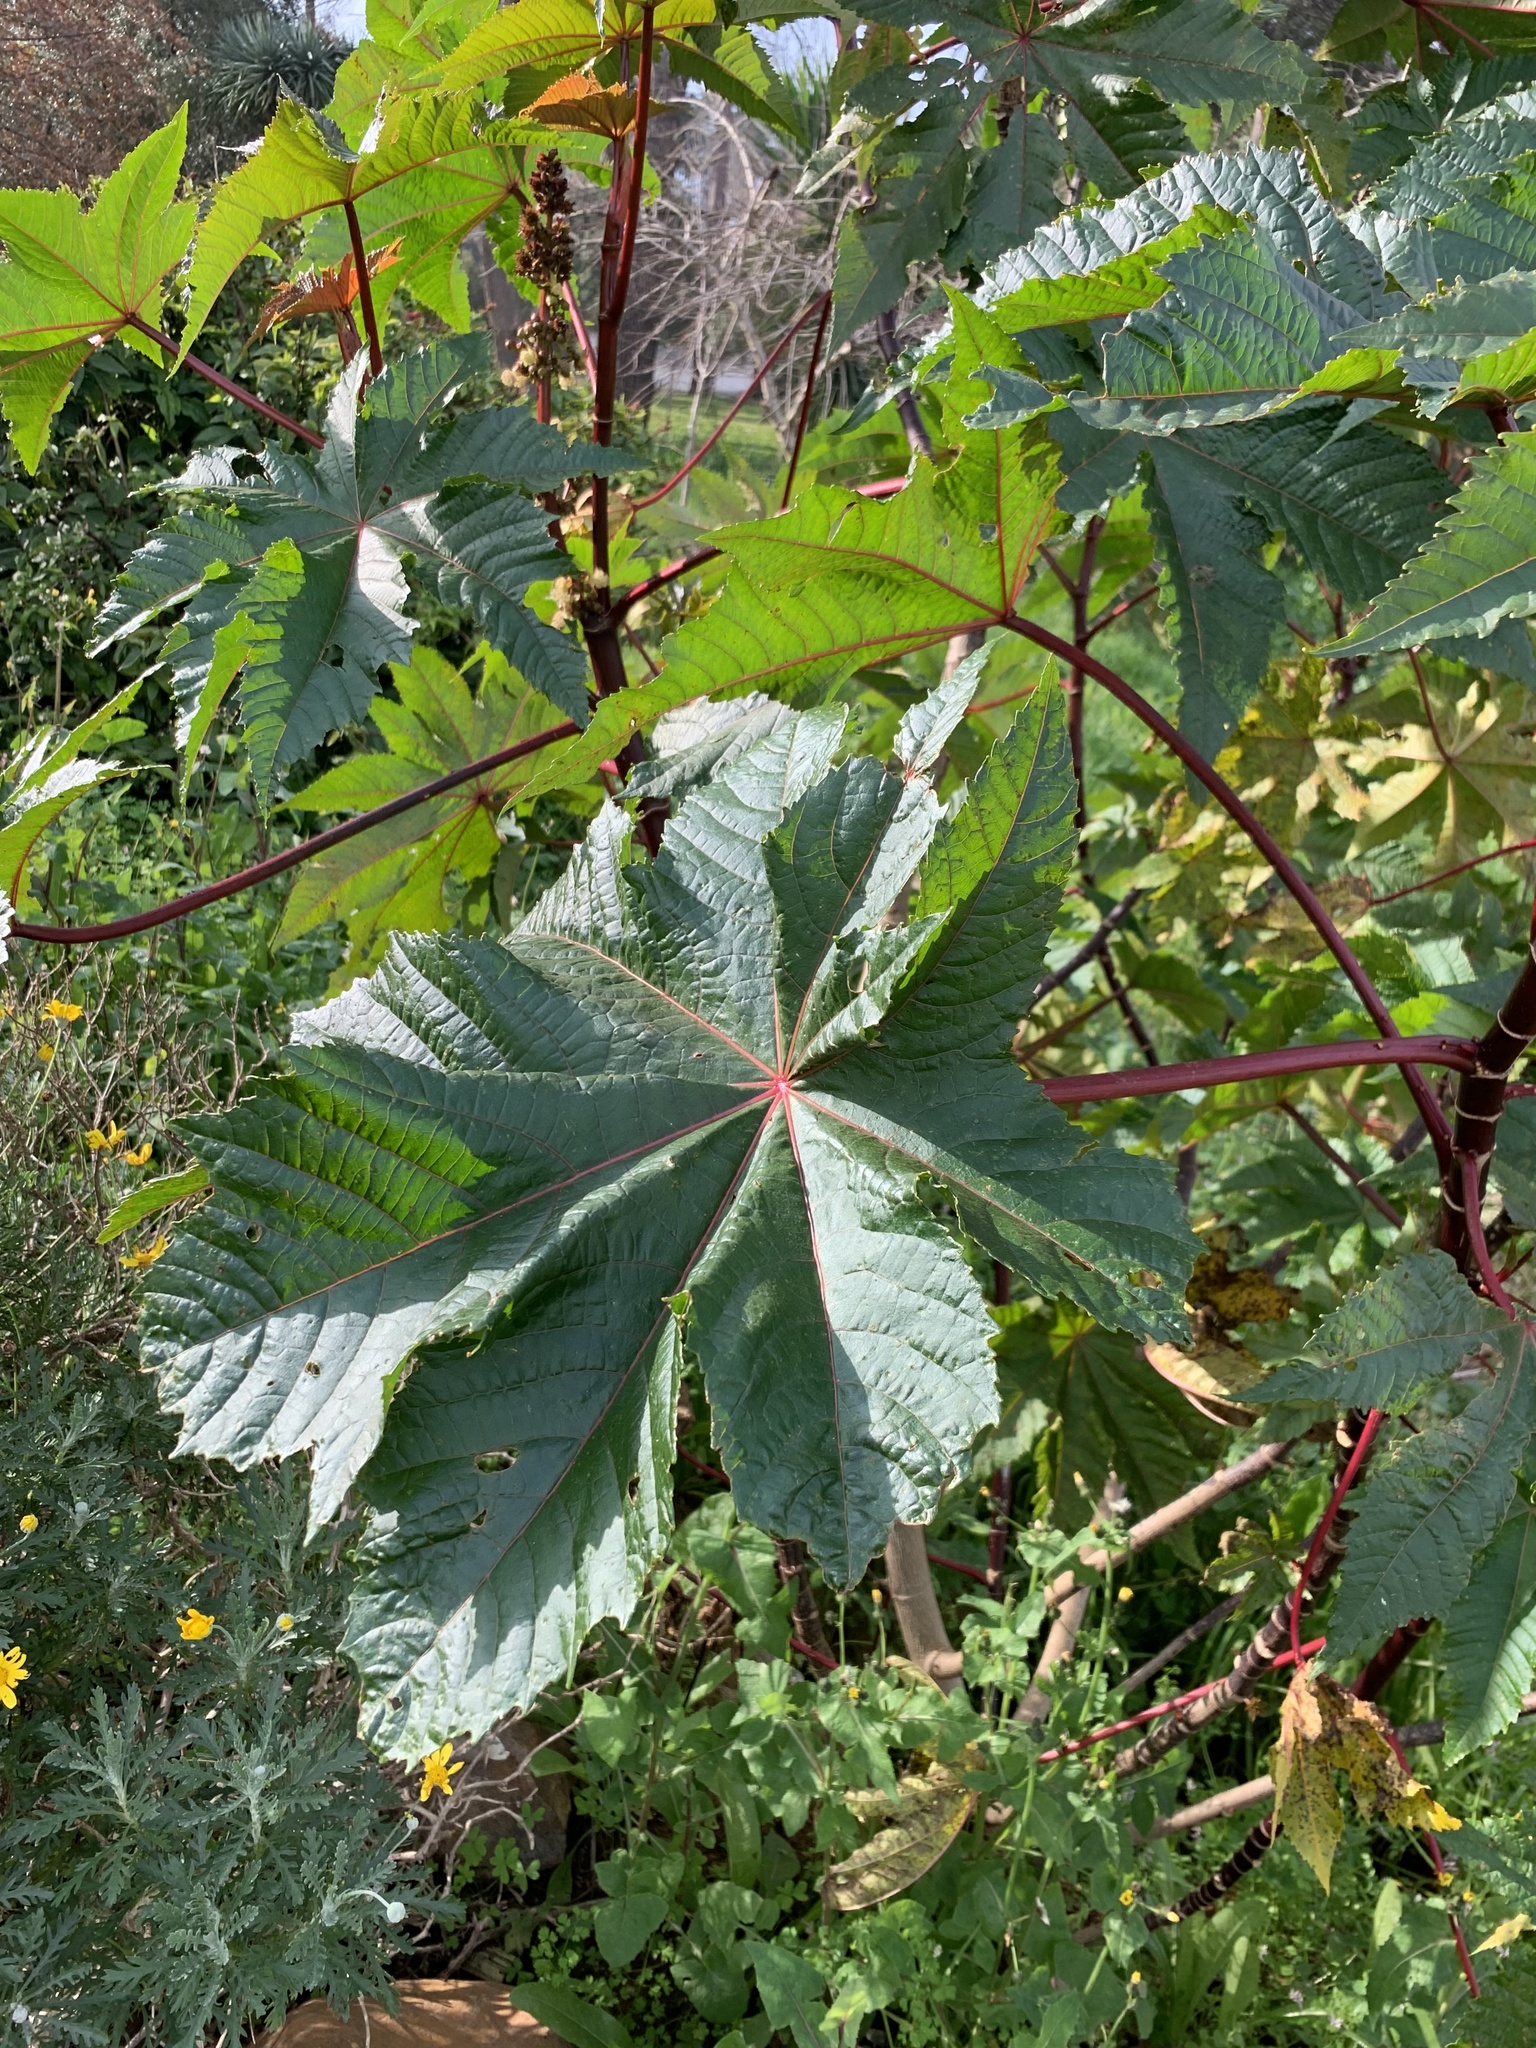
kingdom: Plantae
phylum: Tracheophyta
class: Magnoliopsida
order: Malpighiales
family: Euphorbiaceae
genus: Ricinus
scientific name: Ricinus communis
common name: Castor-oil-plant
